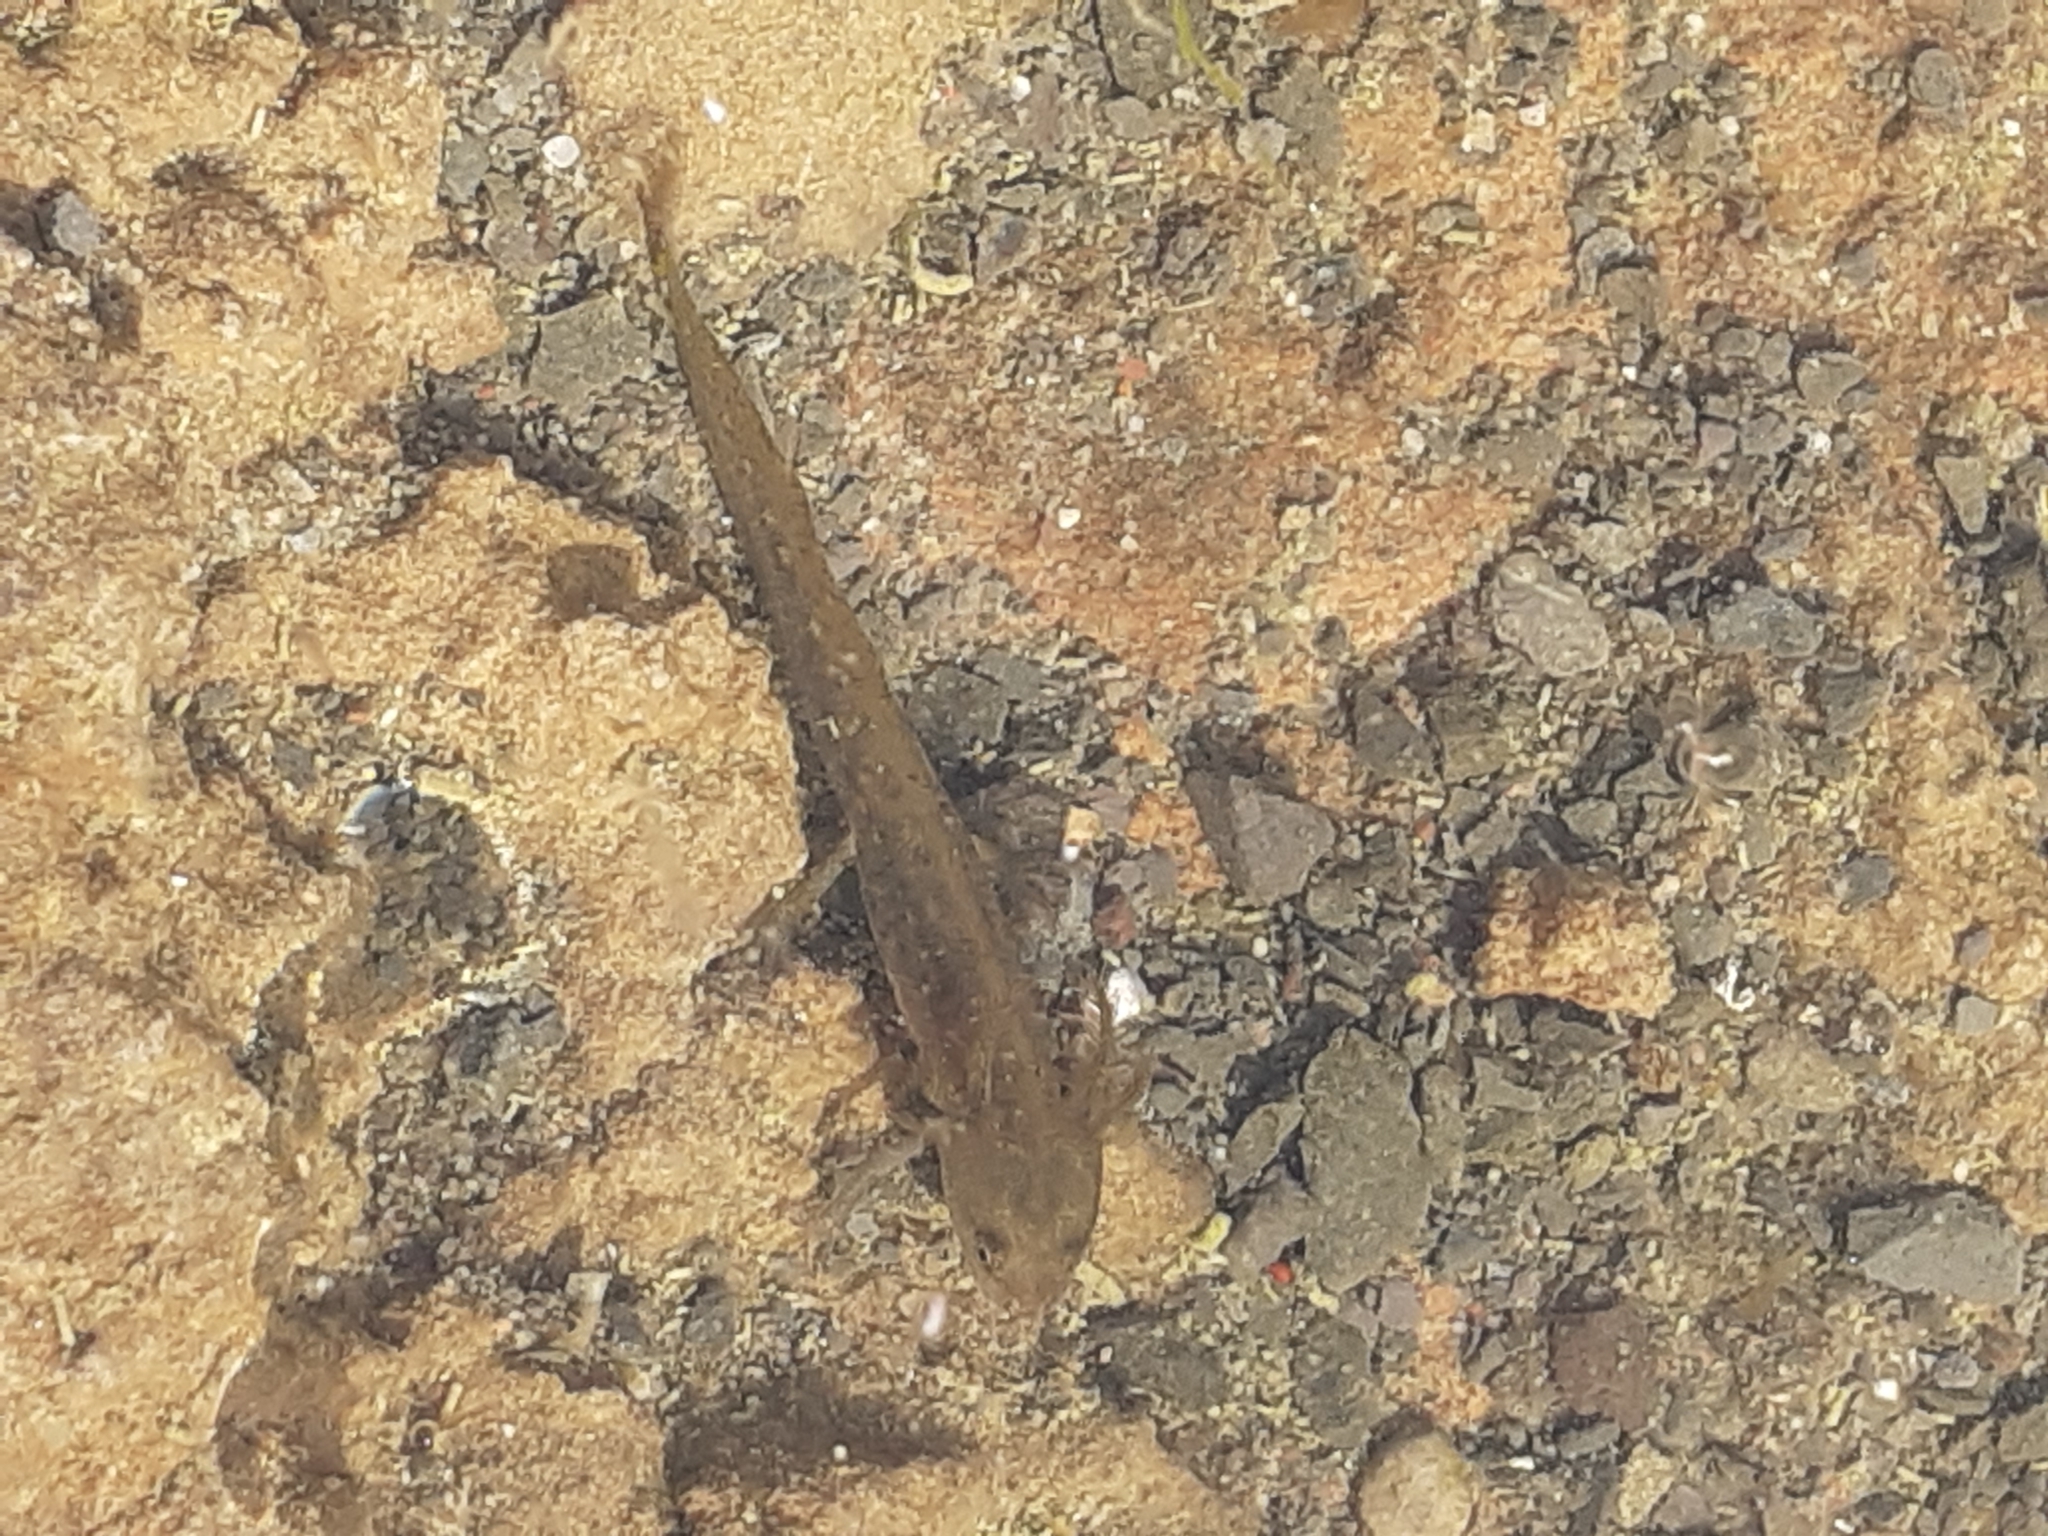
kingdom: Animalia
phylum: Chordata
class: Amphibia
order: Caudata
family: Salamandridae
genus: Lissotriton
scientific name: Lissotriton
